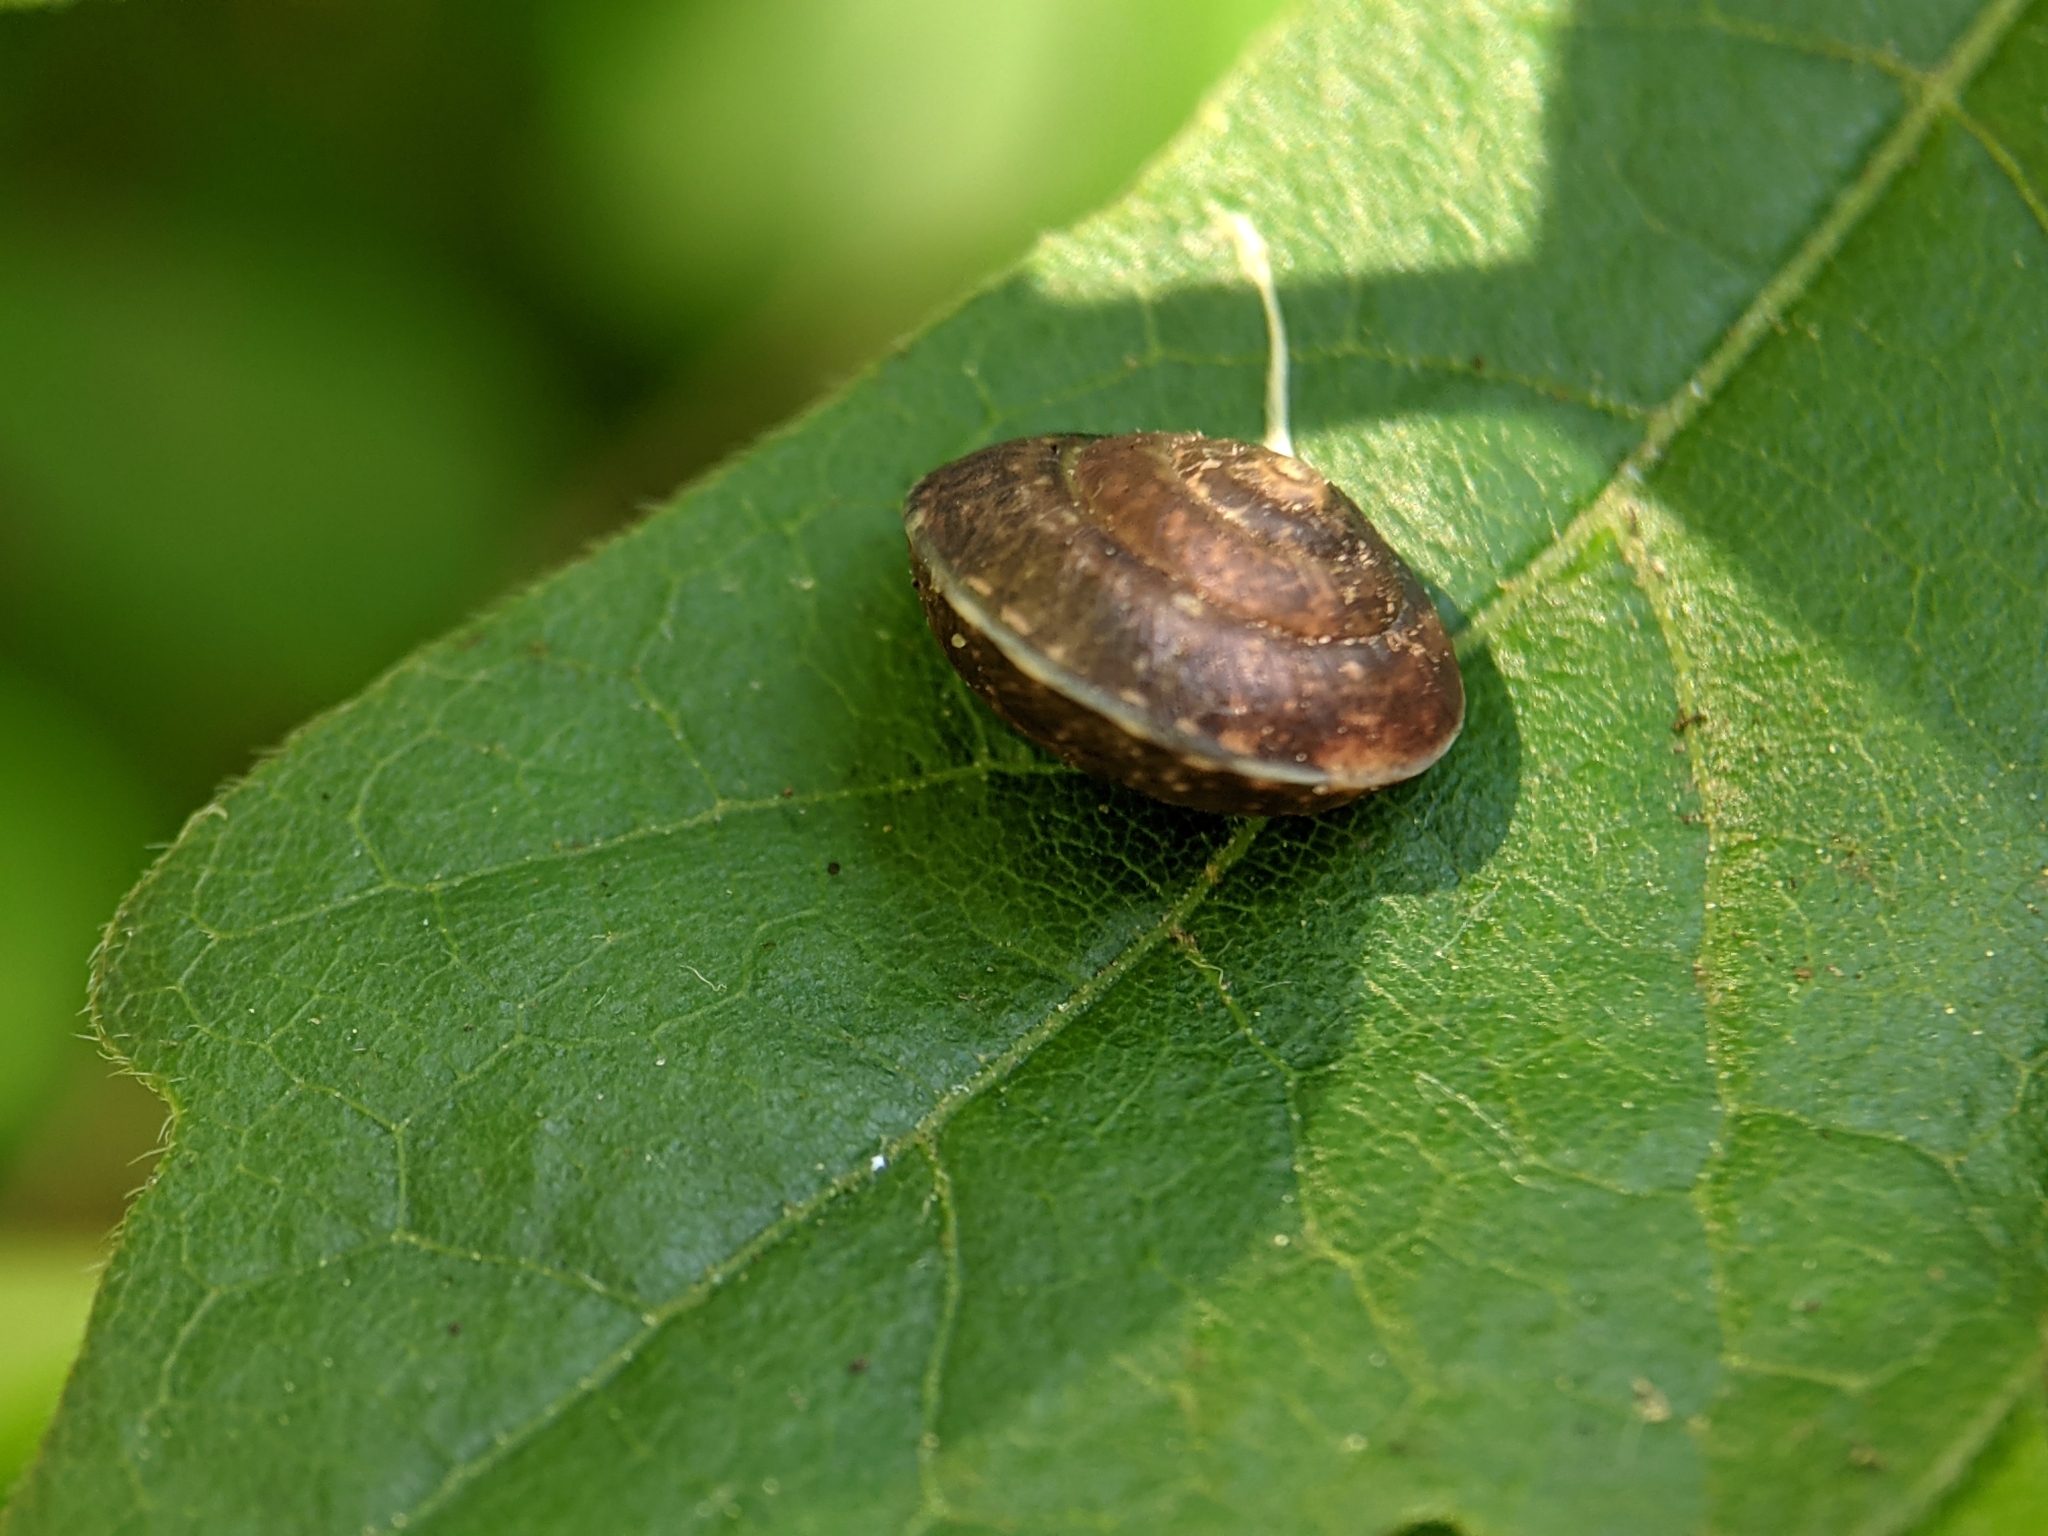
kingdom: Animalia
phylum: Mollusca
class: Gastropoda
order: Stylommatophora
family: Hygromiidae
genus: Hygromia
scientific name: Hygromia cinctella
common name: Girdled snail
